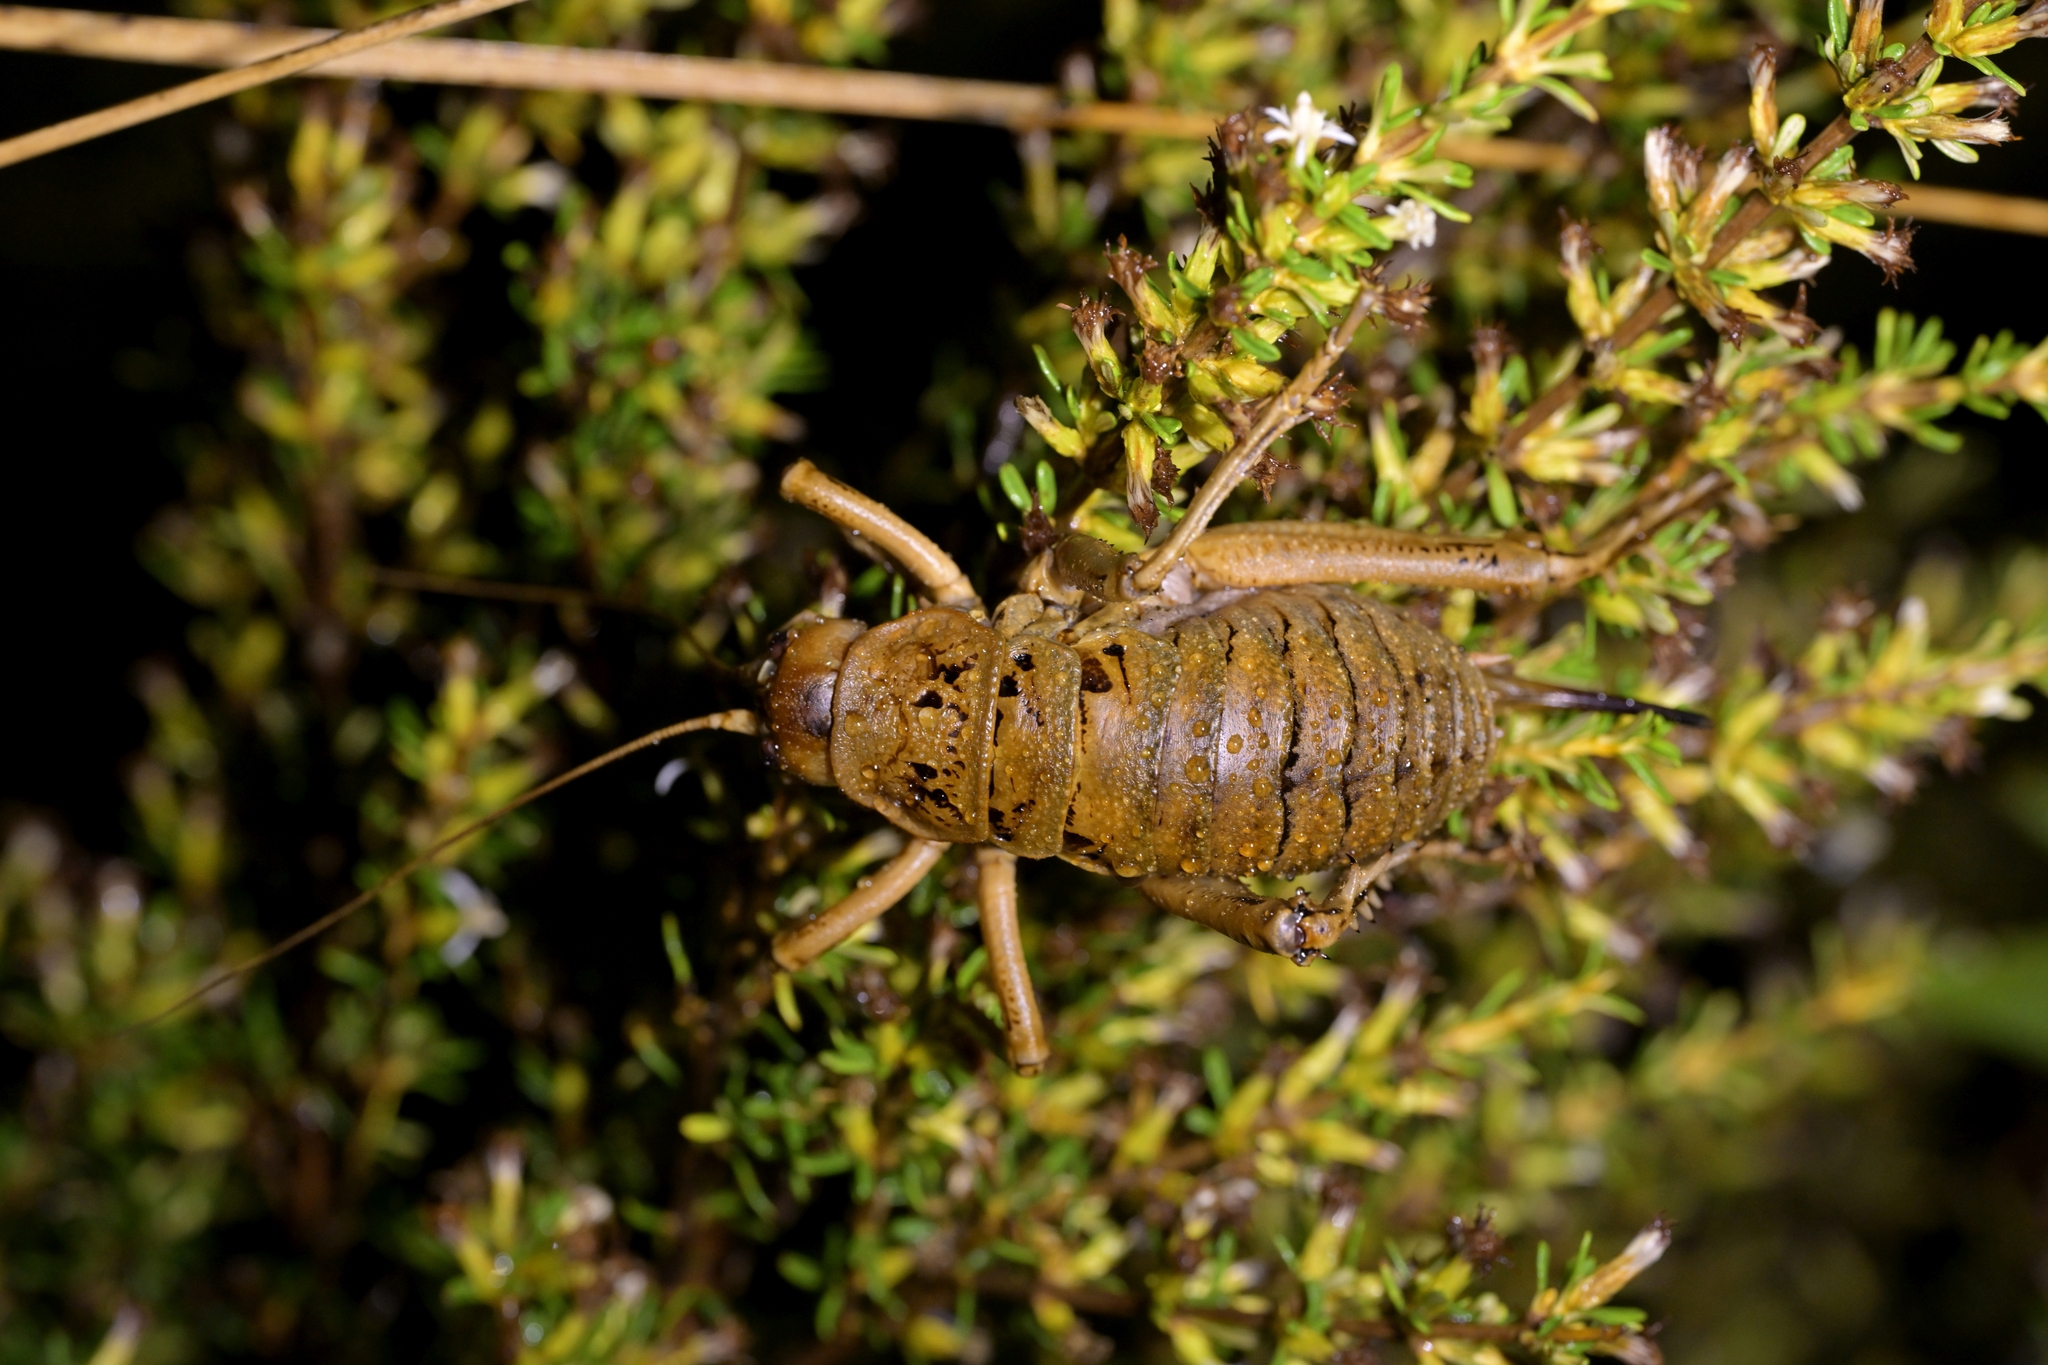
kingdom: Animalia
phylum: Arthropoda
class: Insecta
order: Orthoptera
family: Anostostomatidae
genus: Deinacrida
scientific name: Deinacrida rugosa
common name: Stephens island weta
